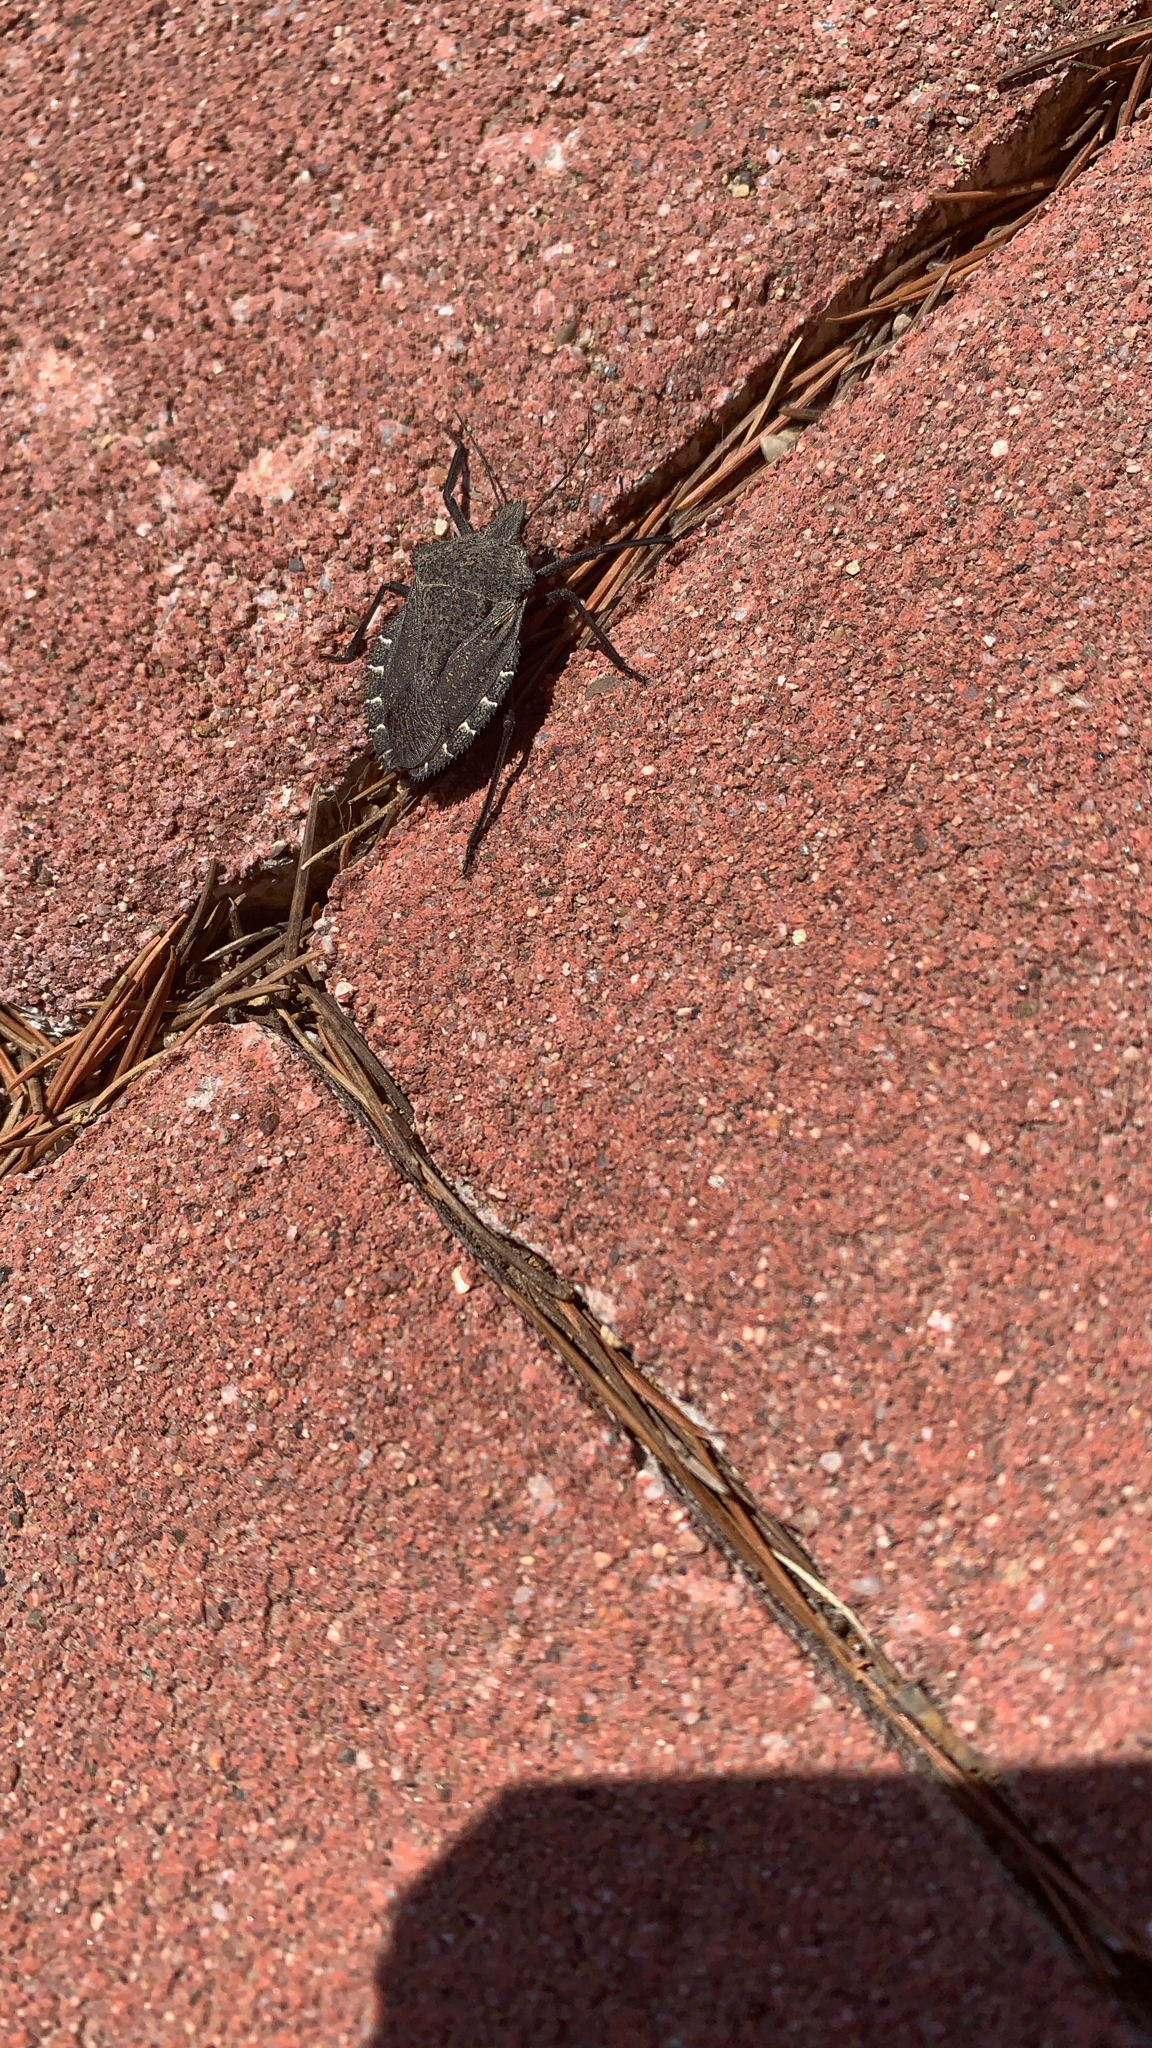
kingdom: Animalia
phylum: Arthropoda
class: Insecta
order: Hemiptera
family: Pentatomidae
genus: Mustha
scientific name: Mustha spinosula
